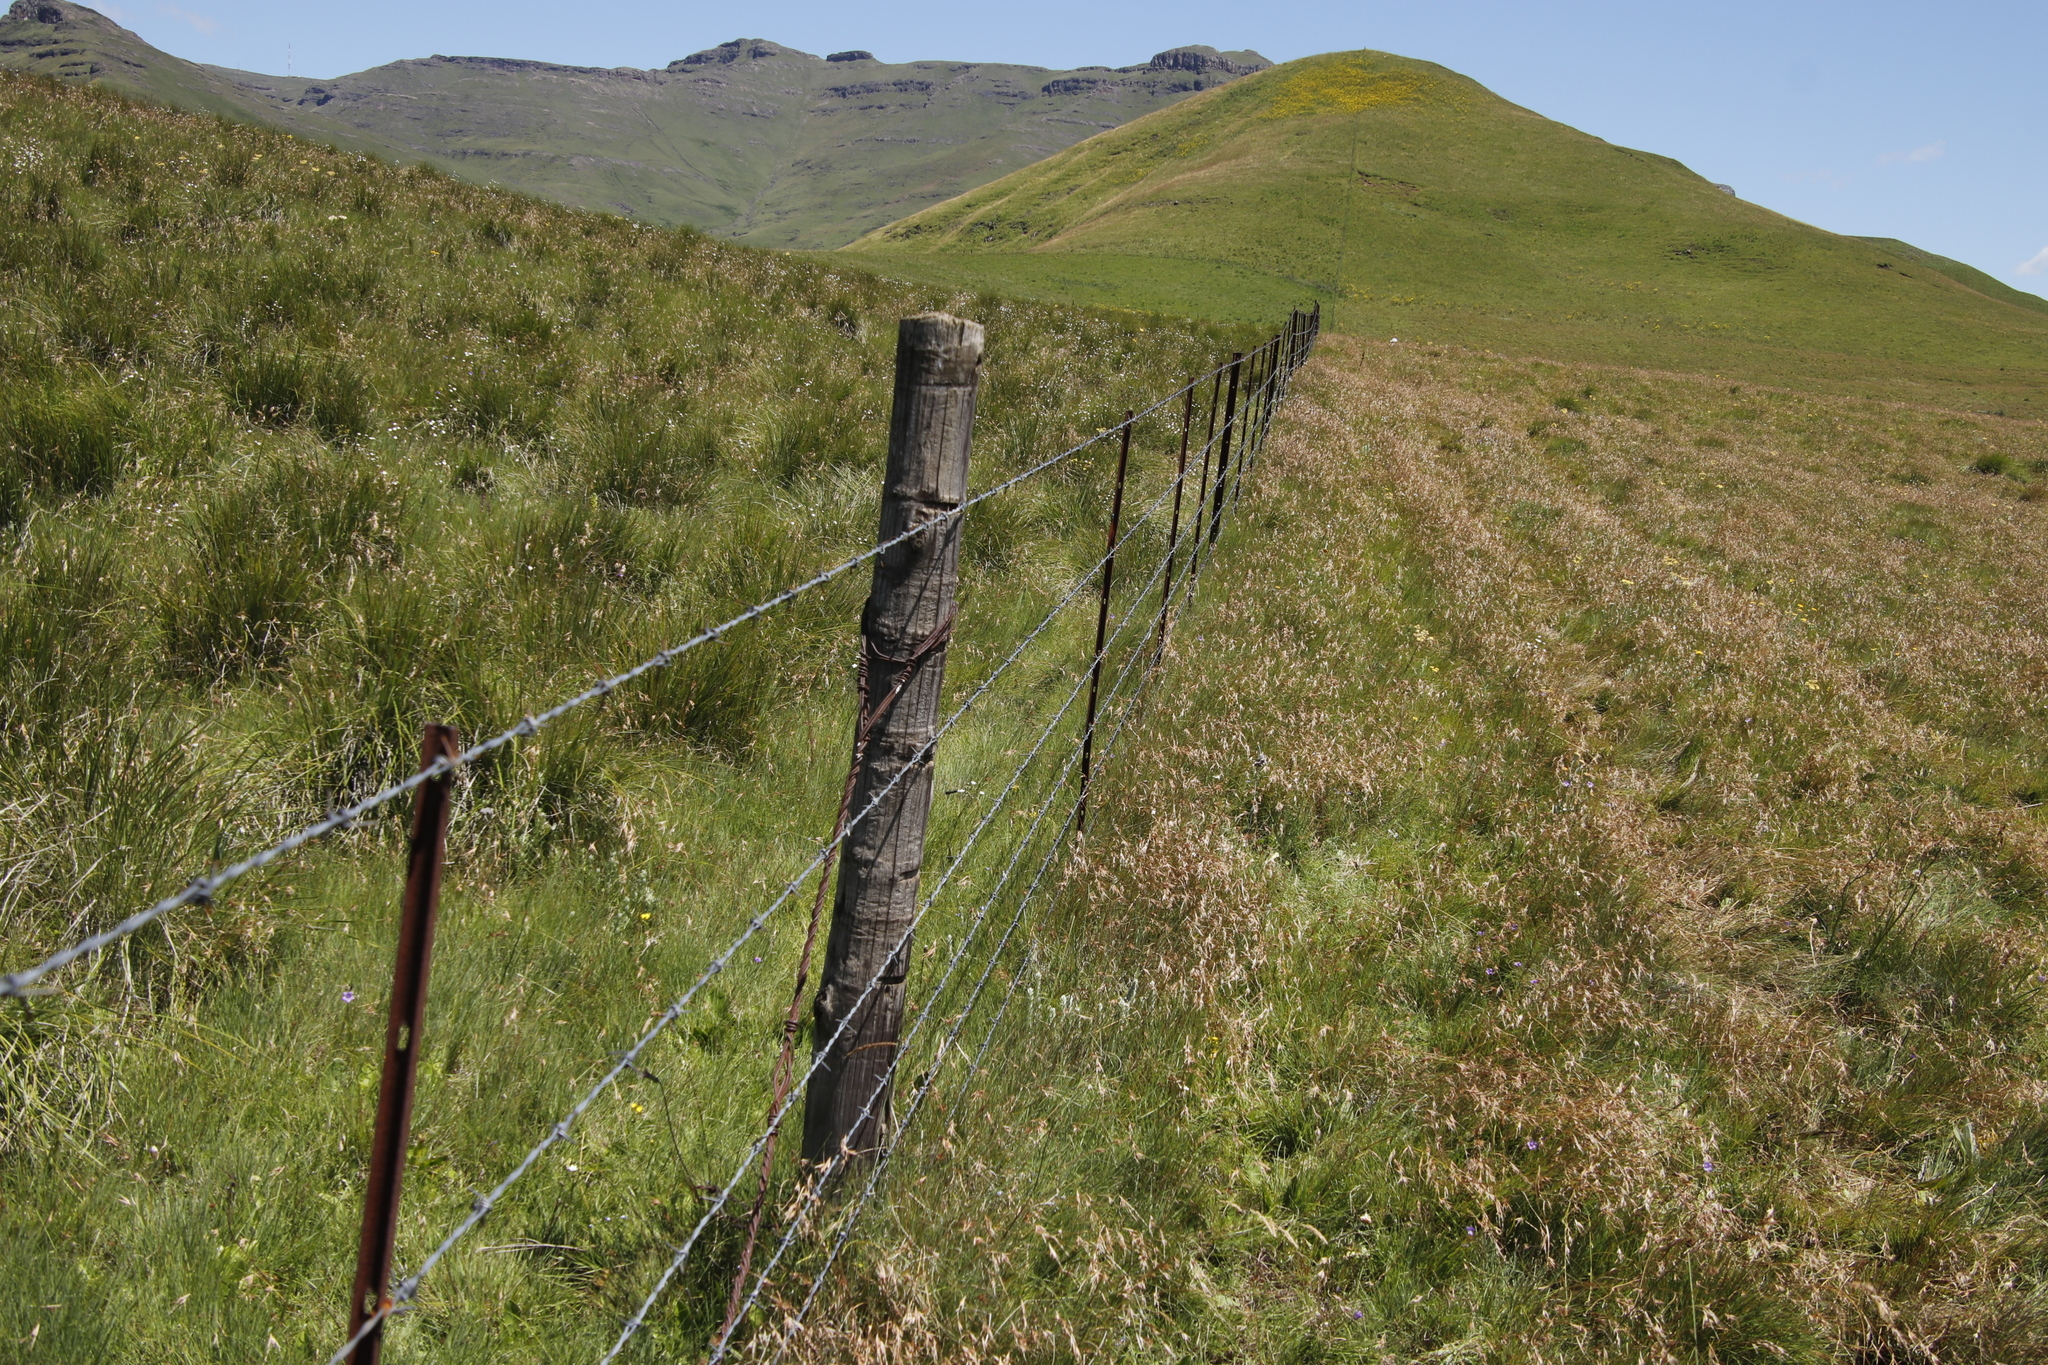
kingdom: Plantae
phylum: Tracheophyta
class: Liliopsida
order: Poales
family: Poaceae
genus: Themeda
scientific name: Themeda triandra
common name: Kangaroo grass
